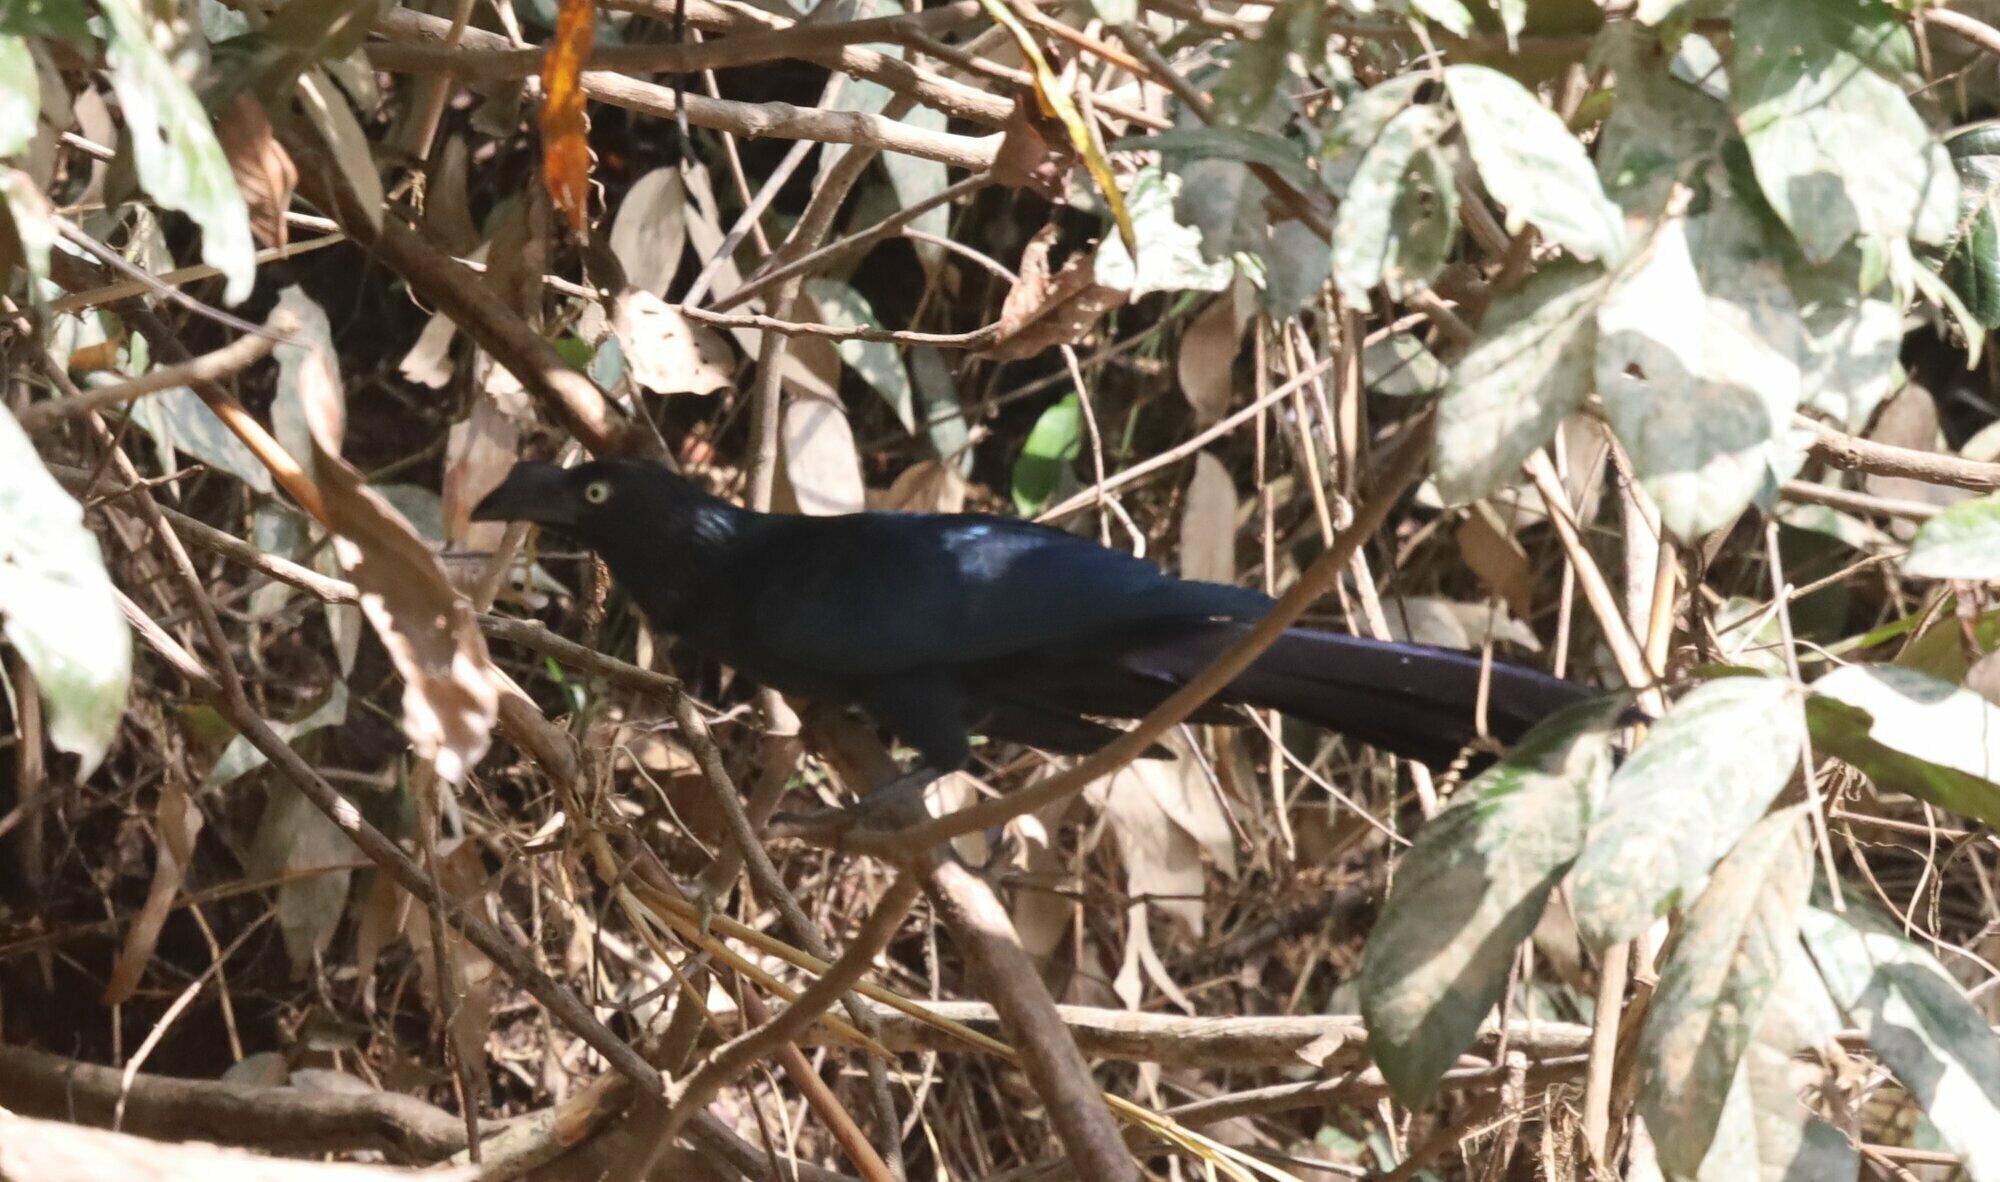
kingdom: Animalia
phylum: Chordata
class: Aves
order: Cuculiformes
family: Cuculidae
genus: Crotophaga
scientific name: Crotophaga major
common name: Greater ani
